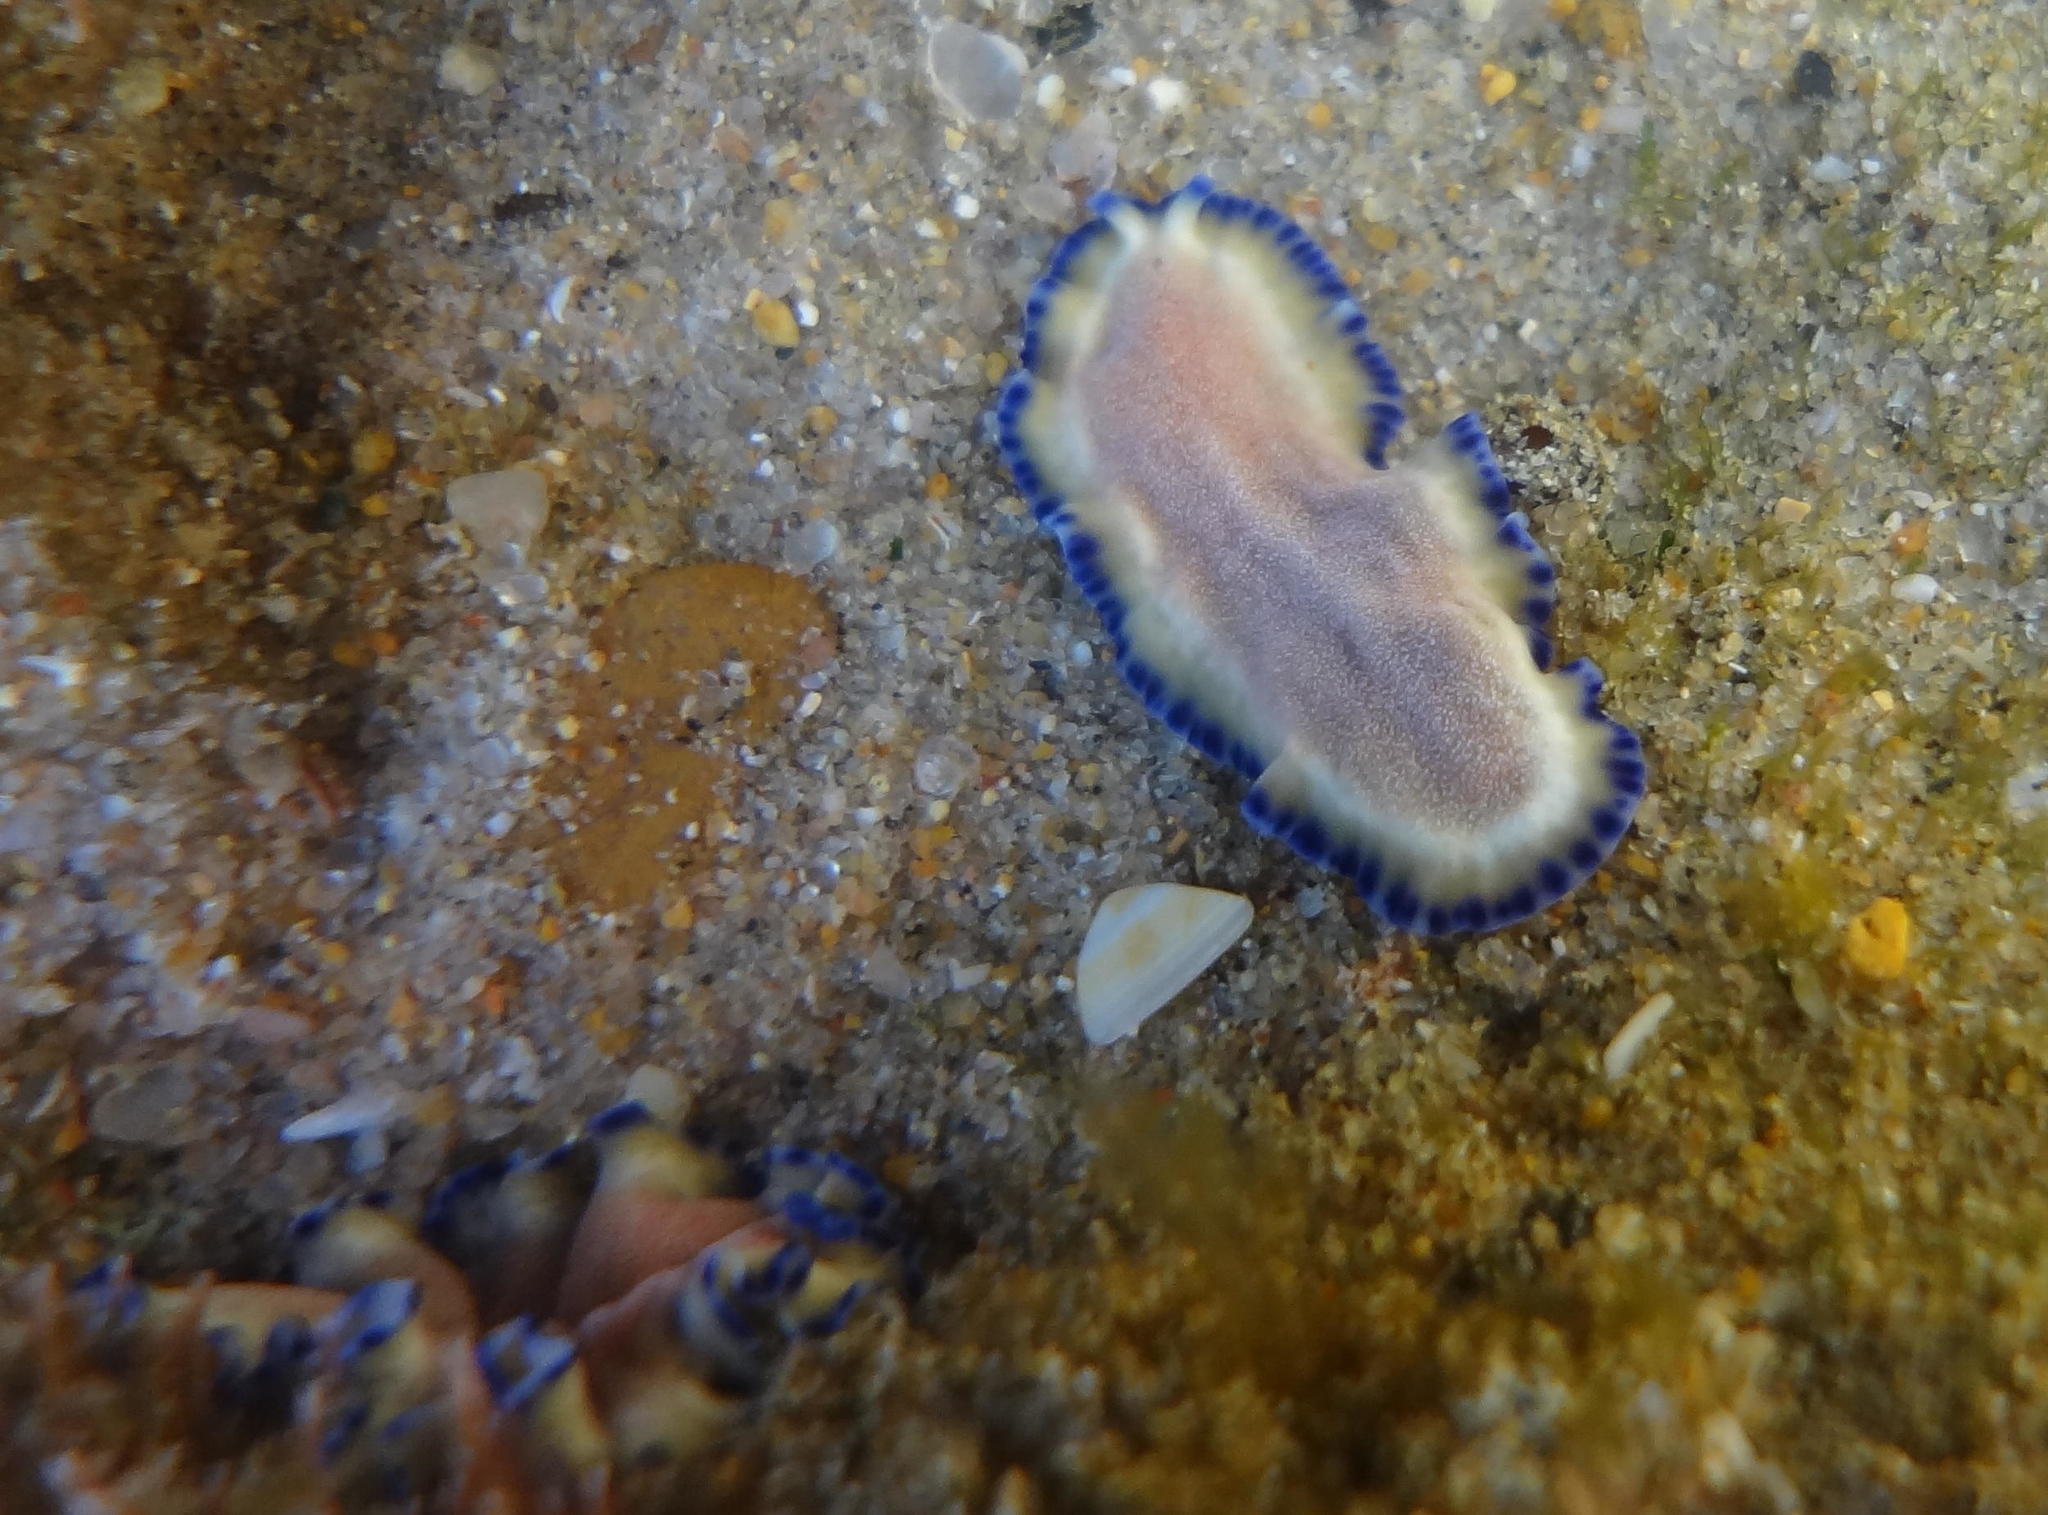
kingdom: Animalia
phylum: Platyhelminthes
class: Turbellaria
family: Pseudocerotidae
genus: Pseudoceros
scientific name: Pseudoceros indicus
